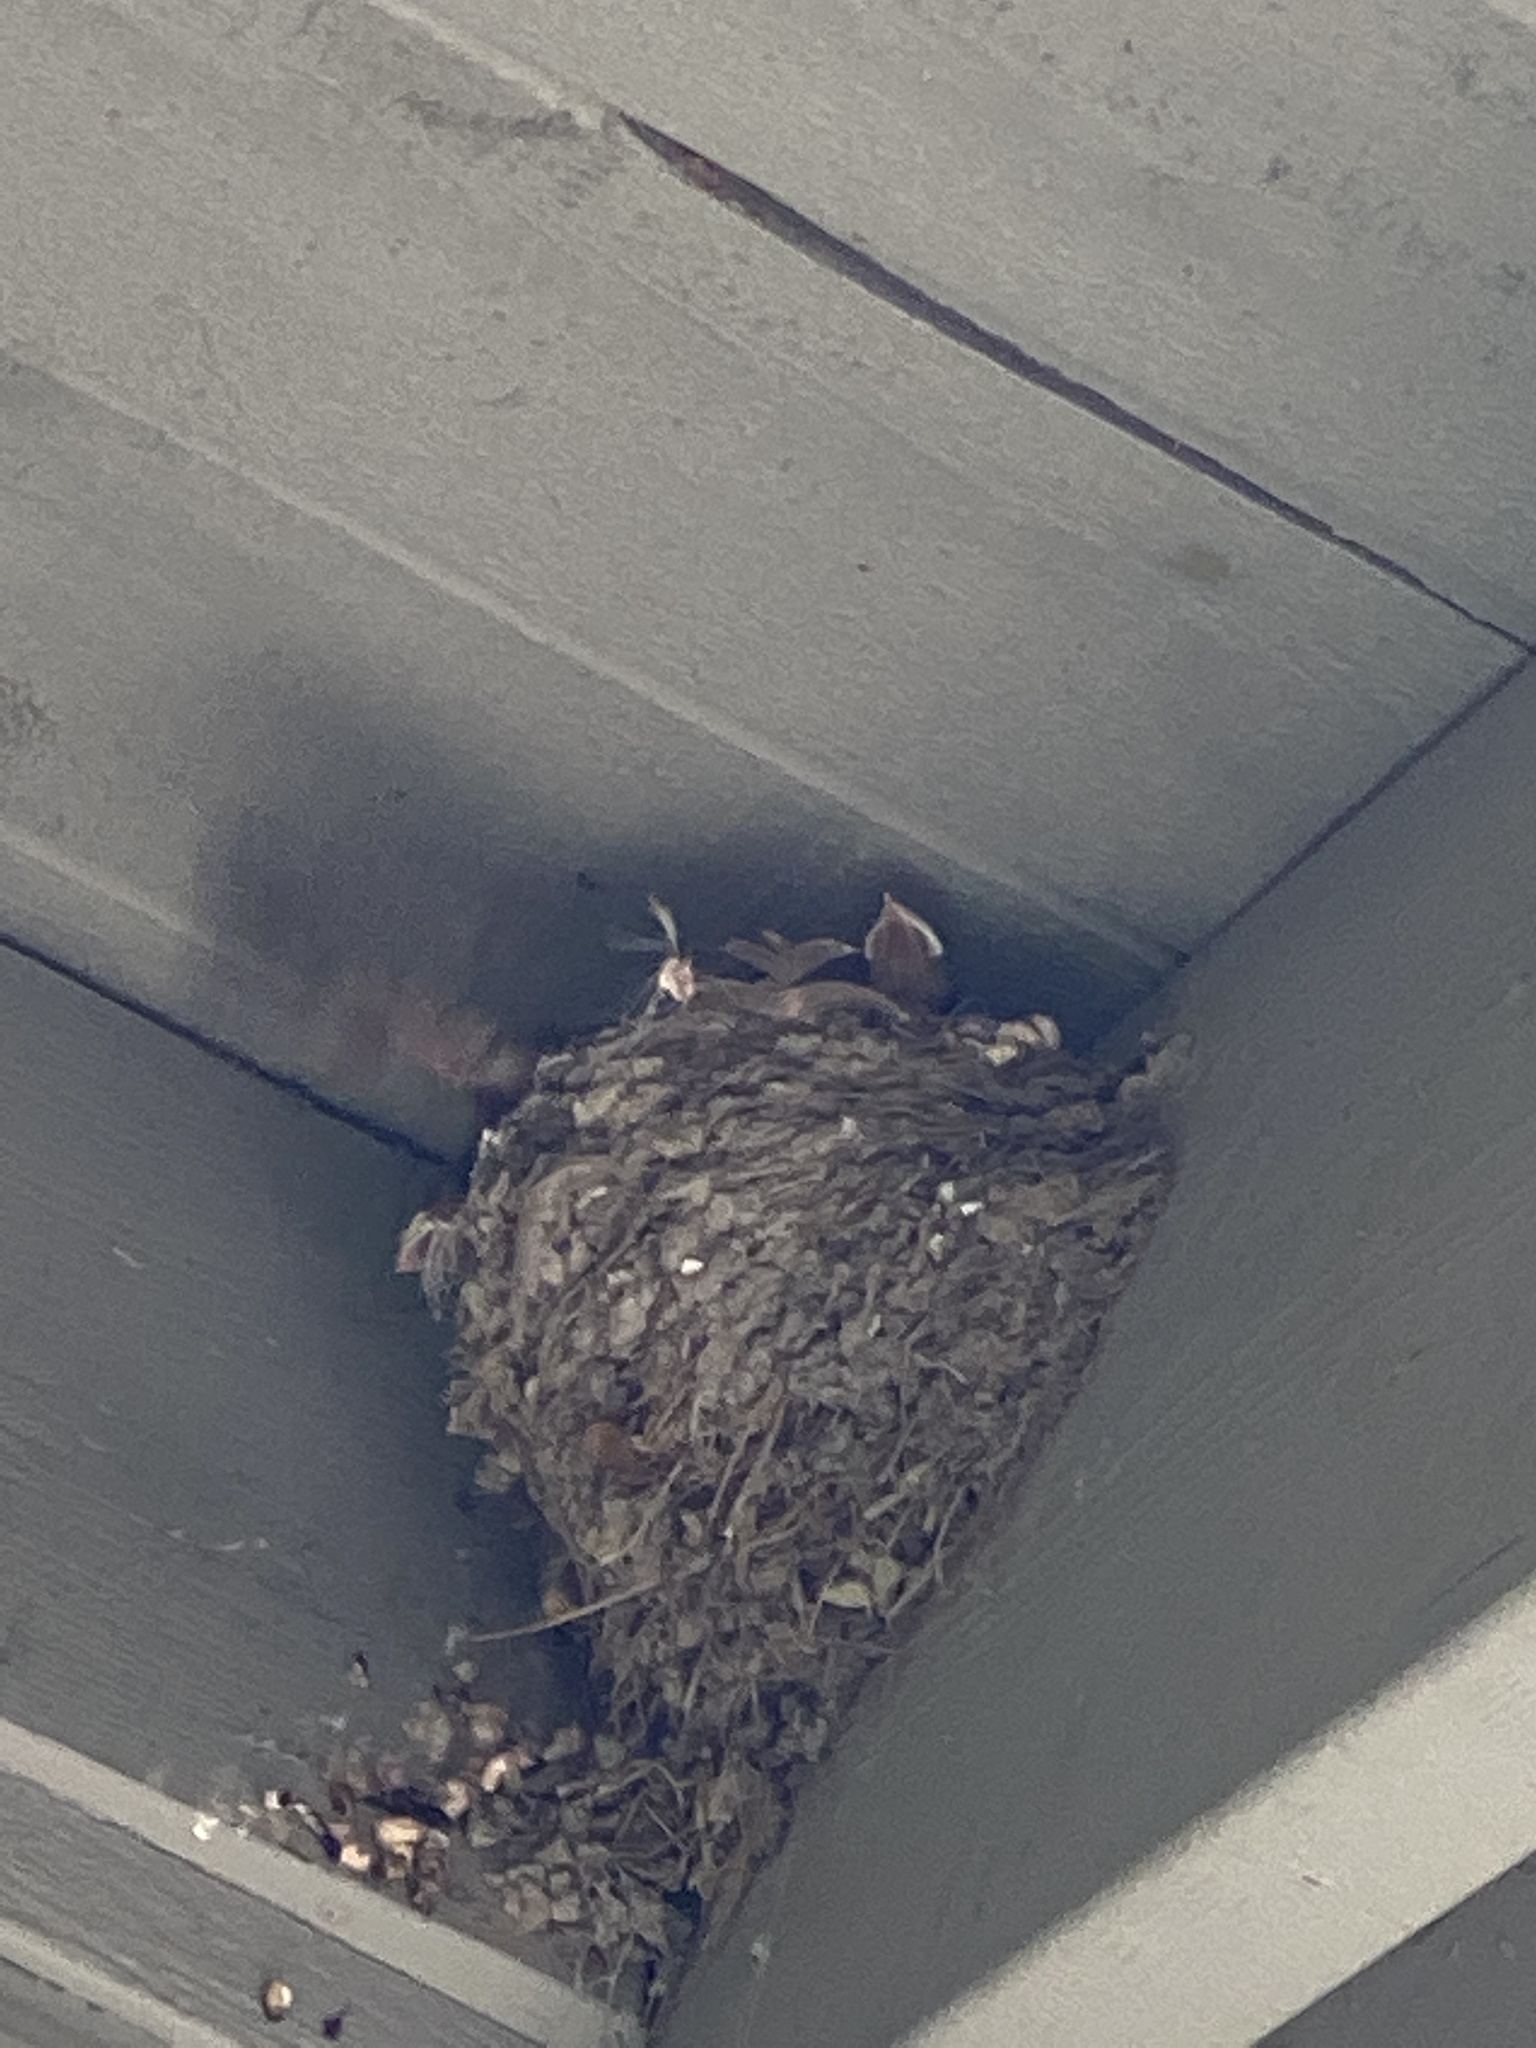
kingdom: Animalia
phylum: Chordata
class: Aves
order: Passeriformes
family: Hirundinidae
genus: Hirundo
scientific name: Hirundo rustica
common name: Barn swallow
